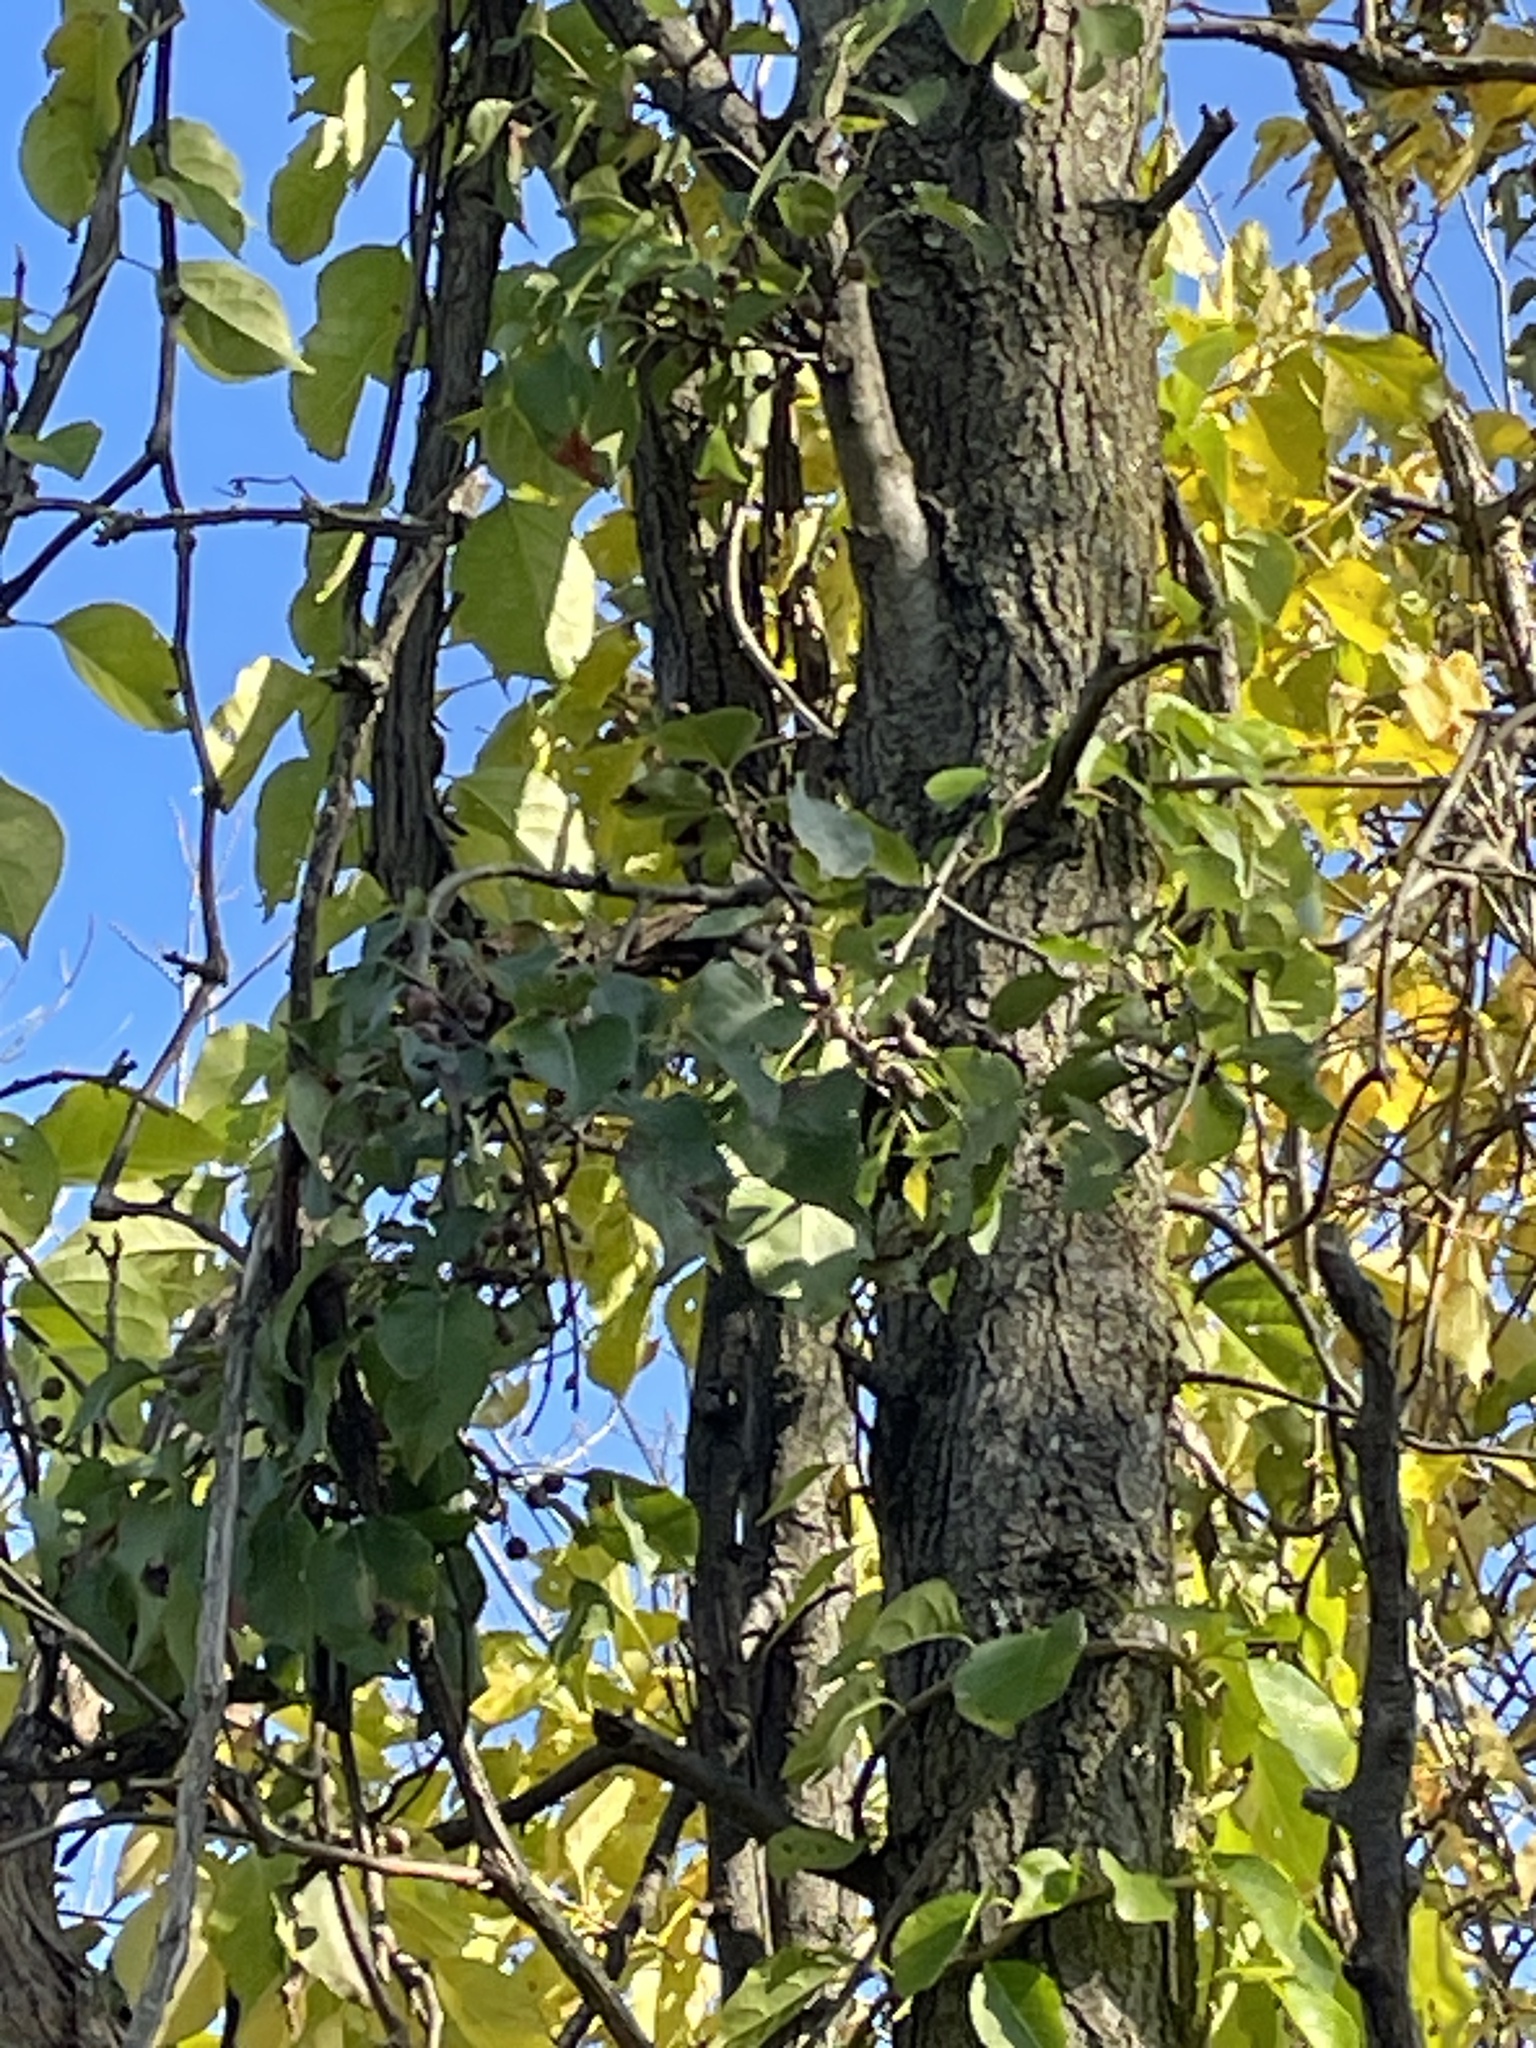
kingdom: Plantae
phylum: Tracheophyta
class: Magnoliopsida
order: Rosales
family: Rosaceae
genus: Pyrus
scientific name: Pyrus calleryana
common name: Callery pear
